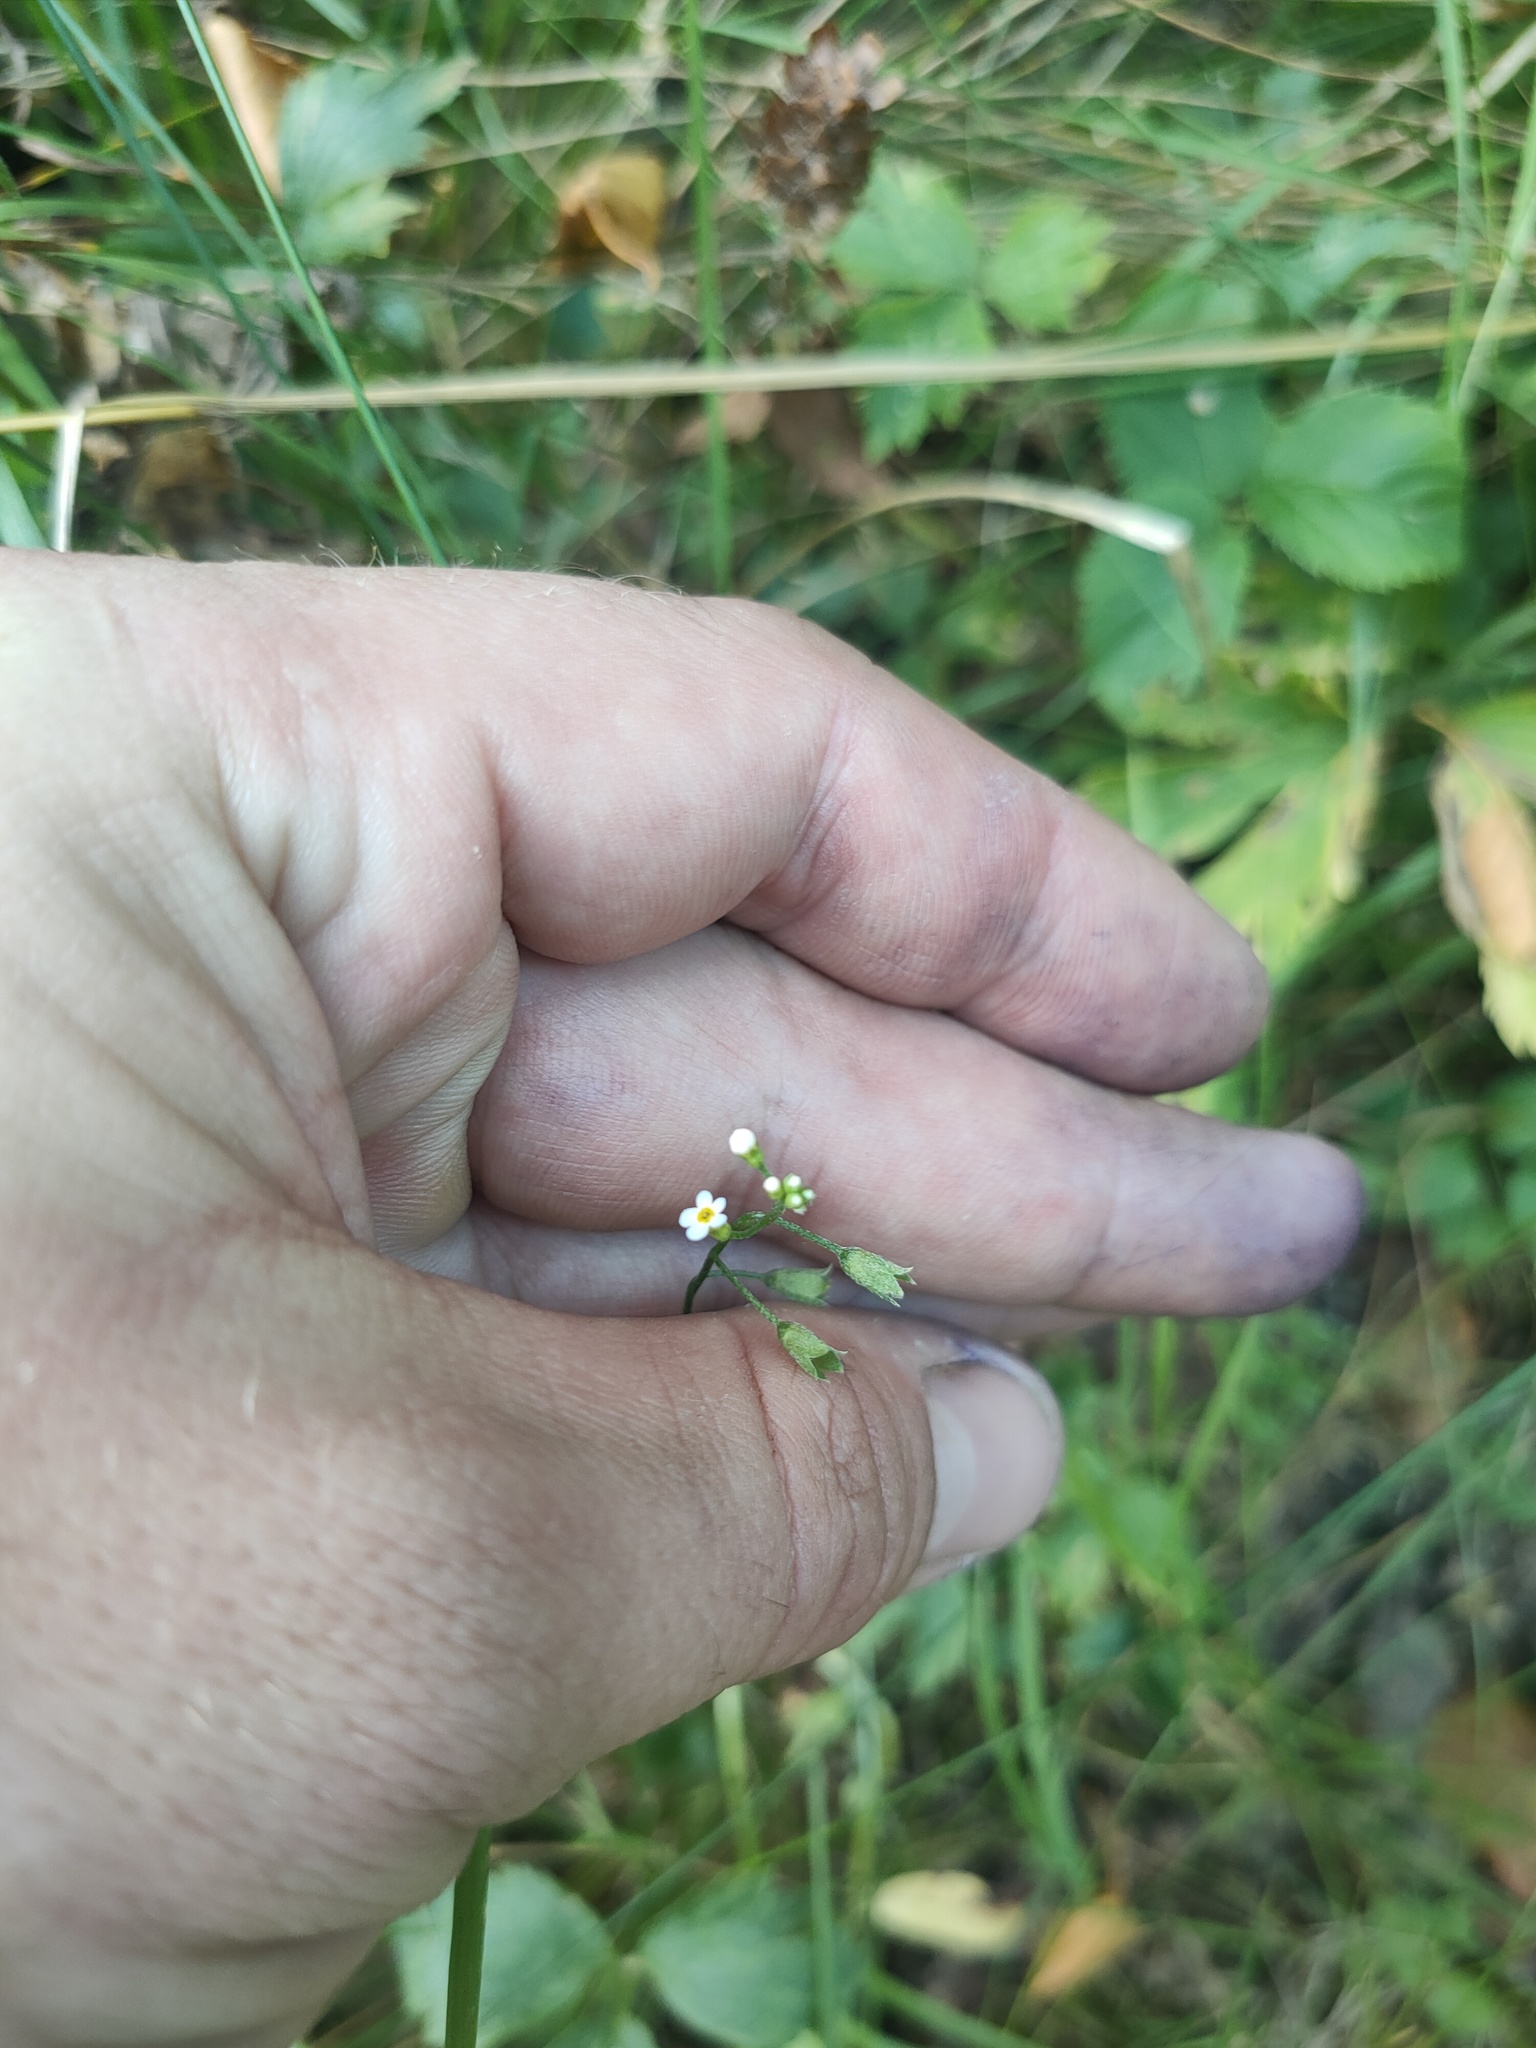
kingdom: Plantae
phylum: Tracheophyta
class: Magnoliopsida
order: Ericales
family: Primulaceae
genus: Androsace
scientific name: Androsace filiformis
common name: Filiform rock jasmine
